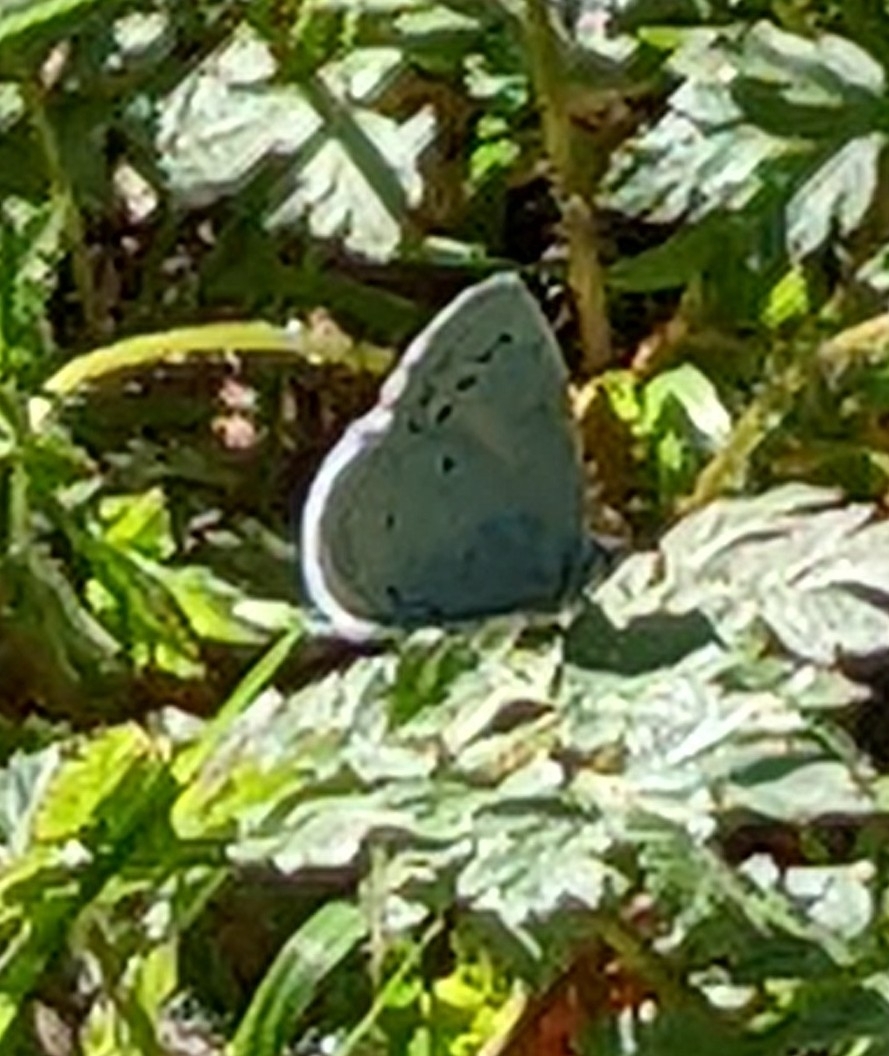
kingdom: Animalia
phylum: Arthropoda
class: Insecta
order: Lepidoptera
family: Lycaenidae
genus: Celastrina
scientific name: Celastrina argiolus
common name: Holly blue
